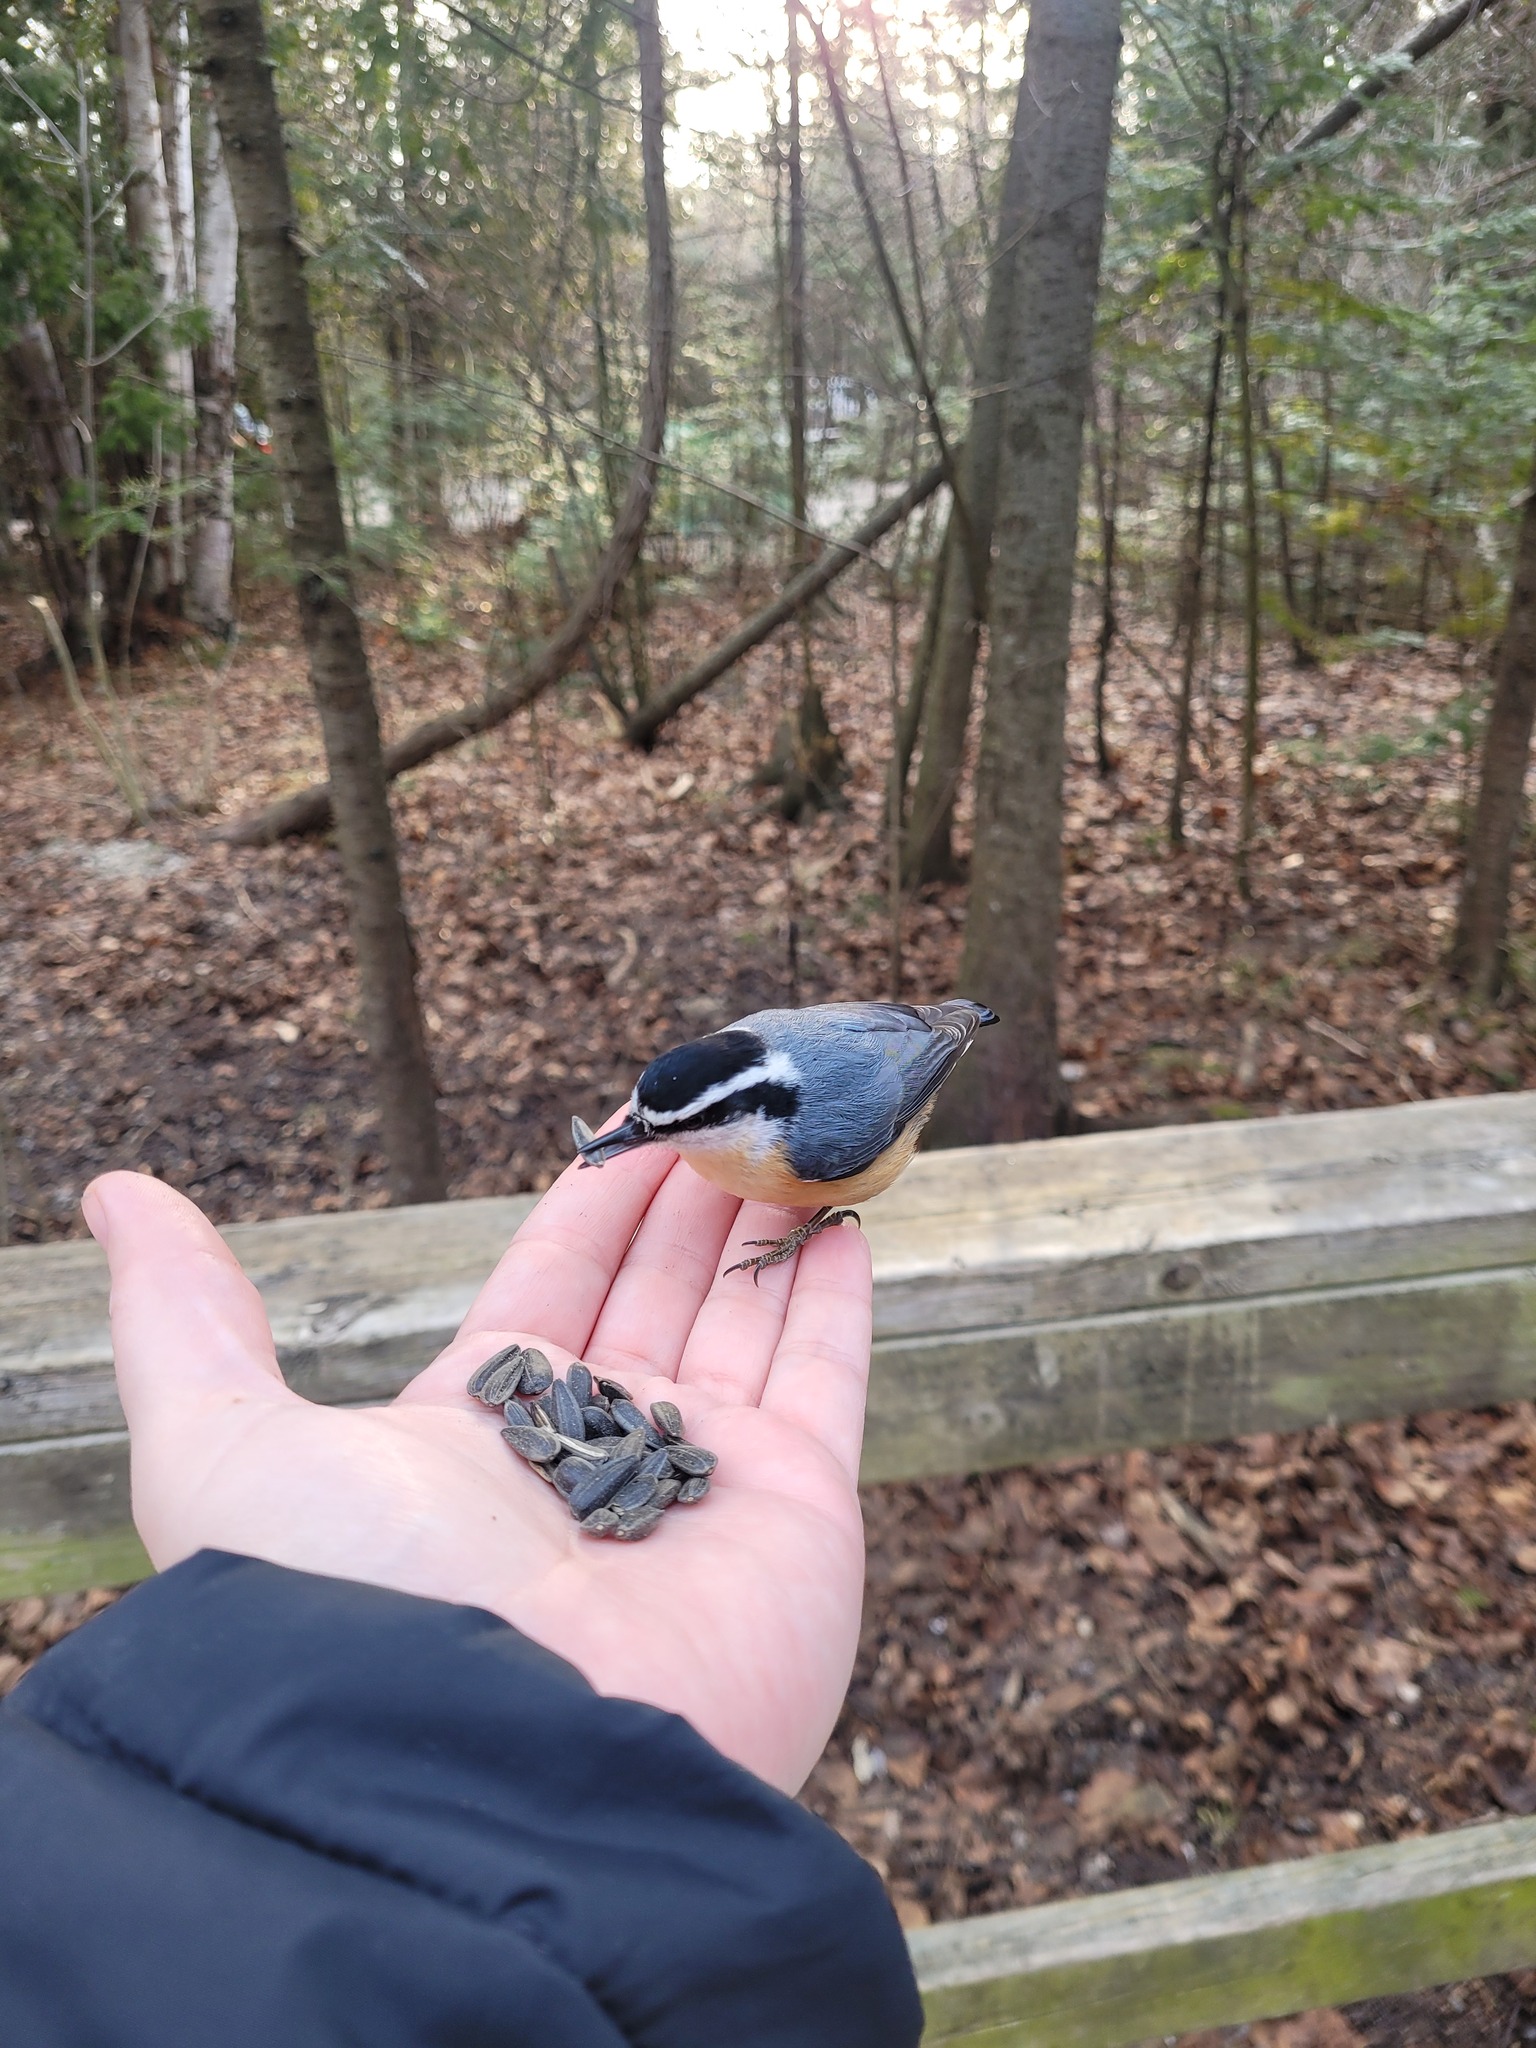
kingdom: Animalia
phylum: Chordata
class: Aves
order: Passeriformes
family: Sittidae
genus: Sitta
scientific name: Sitta canadensis
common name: Red-breasted nuthatch
